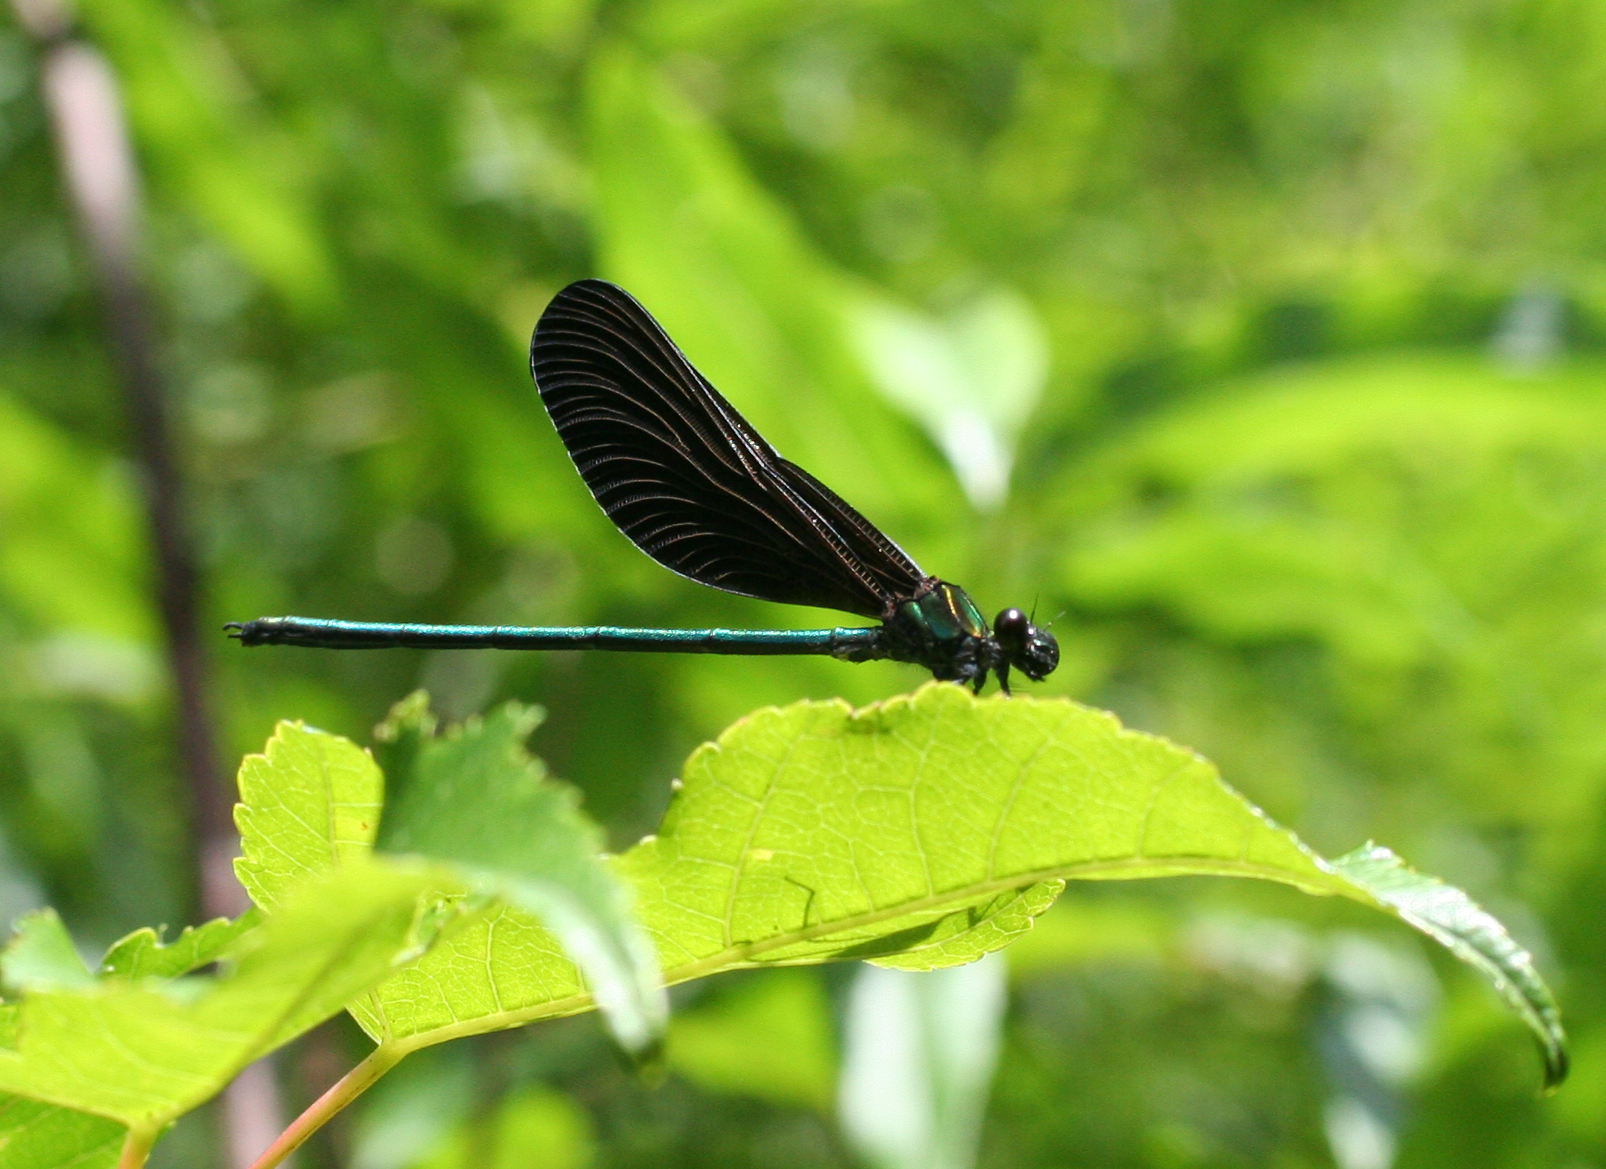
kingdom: Animalia
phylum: Arthropoda
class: Insecta
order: Odonata
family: Calopterygidae
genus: Atrocalopteryx
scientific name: Atrocalopteryx atrata
